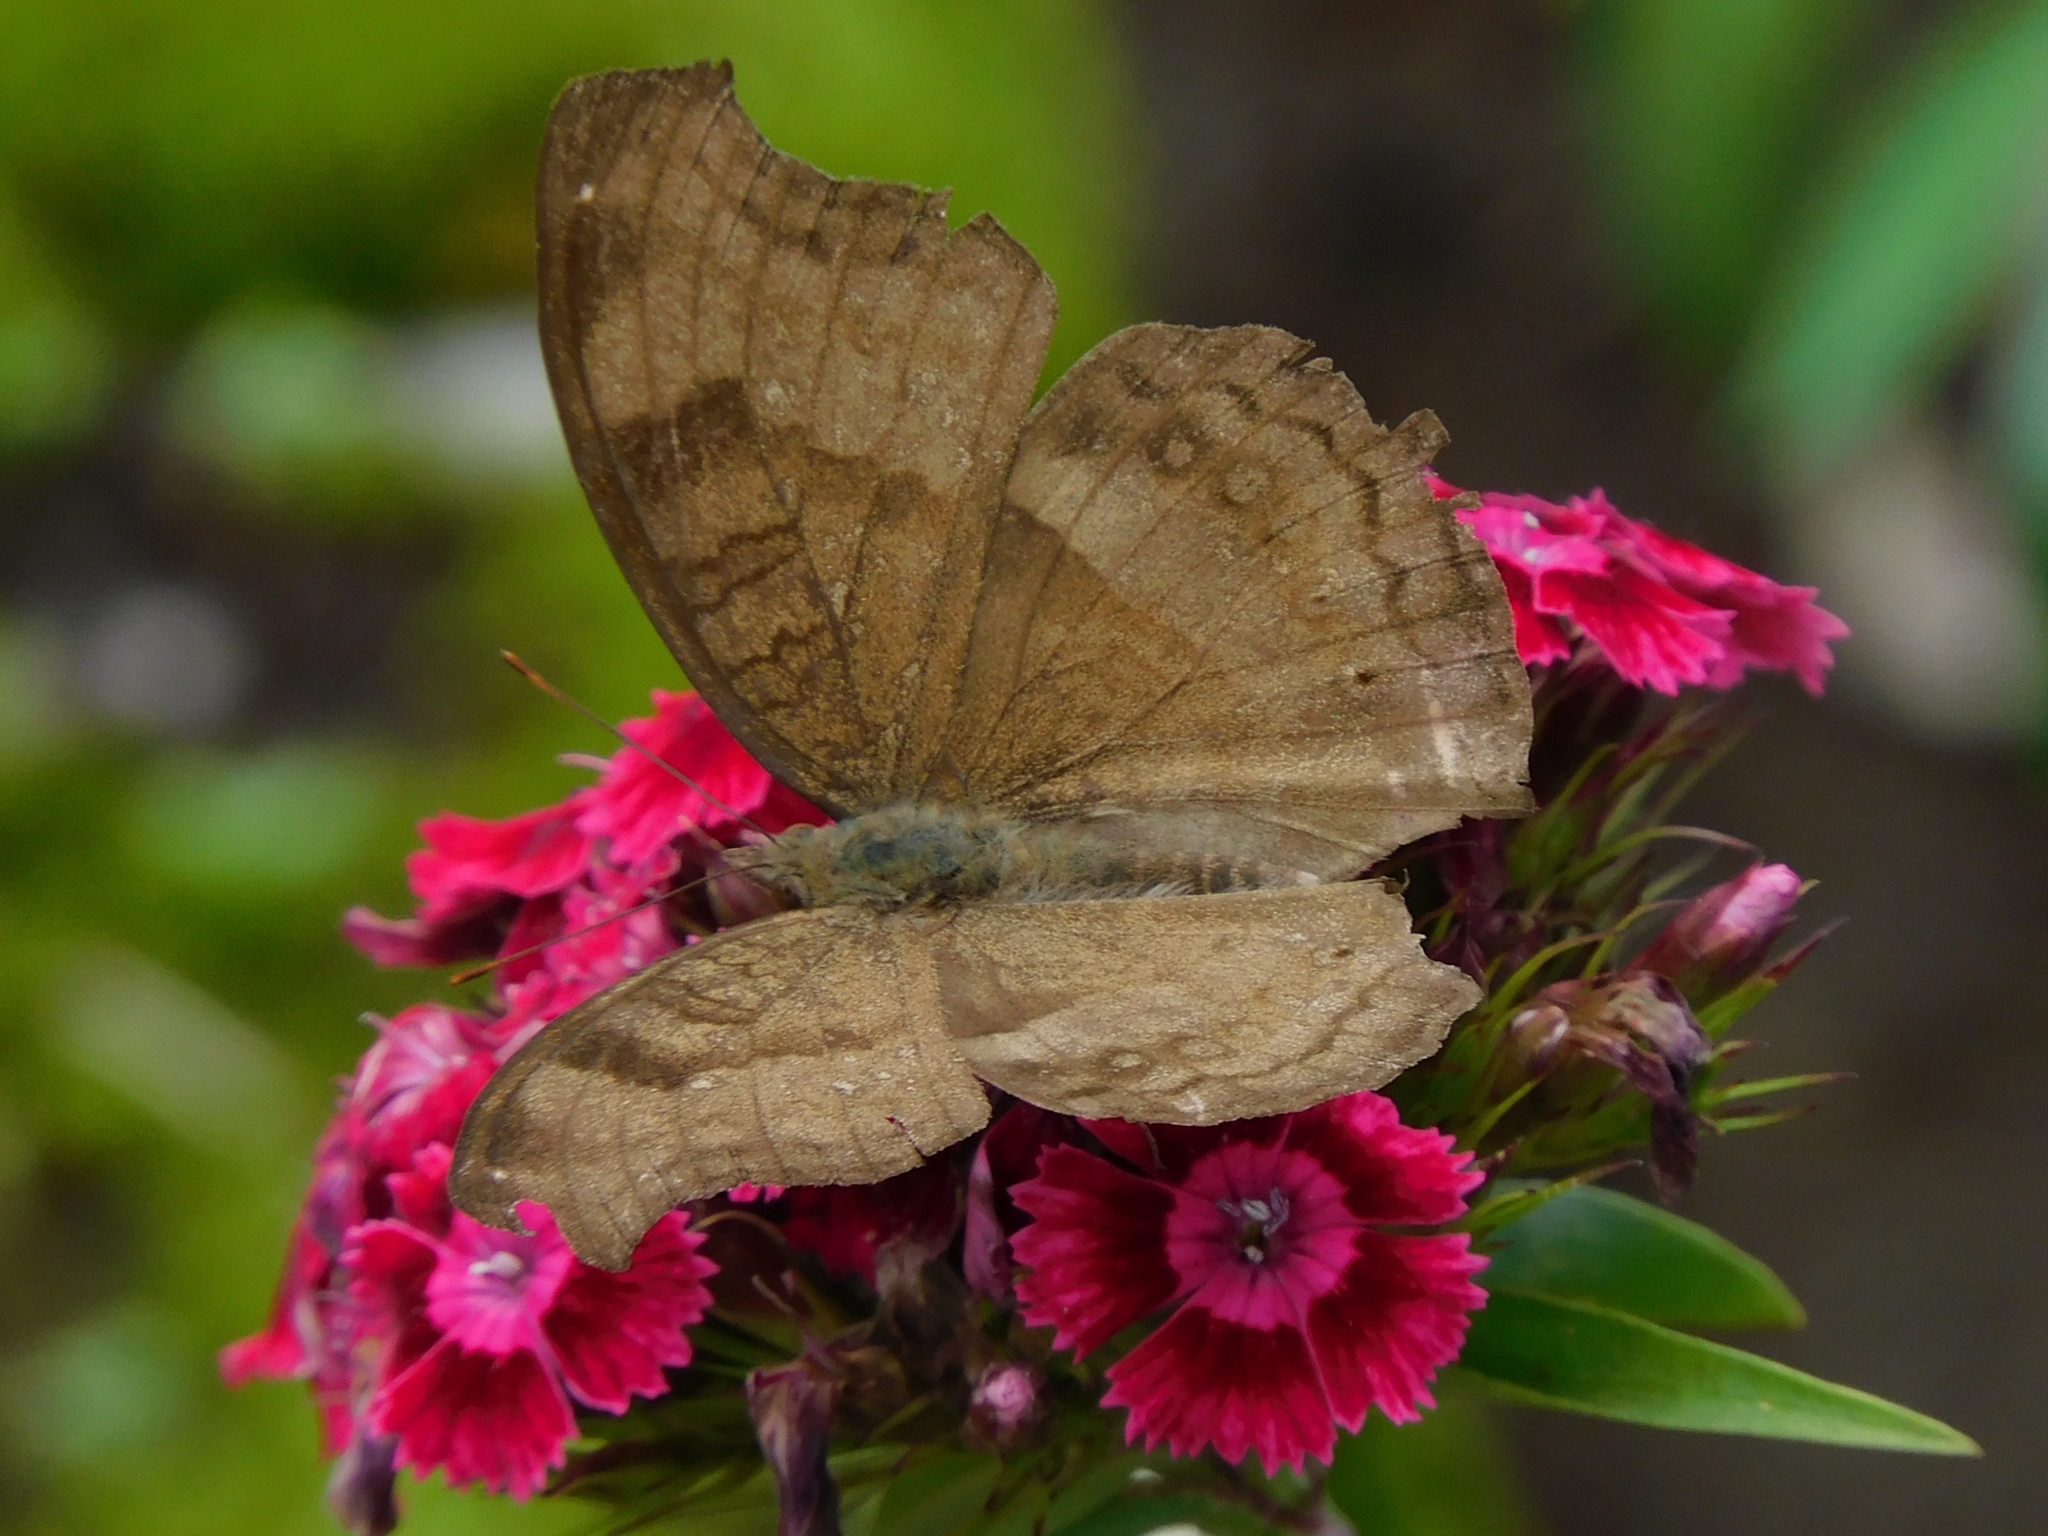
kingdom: Animalia
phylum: Arthropoda
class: Insecta
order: Lepidoptera
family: Nymphalidae
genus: Junonia
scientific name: Junonia iphita
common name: Chocolate pansy
